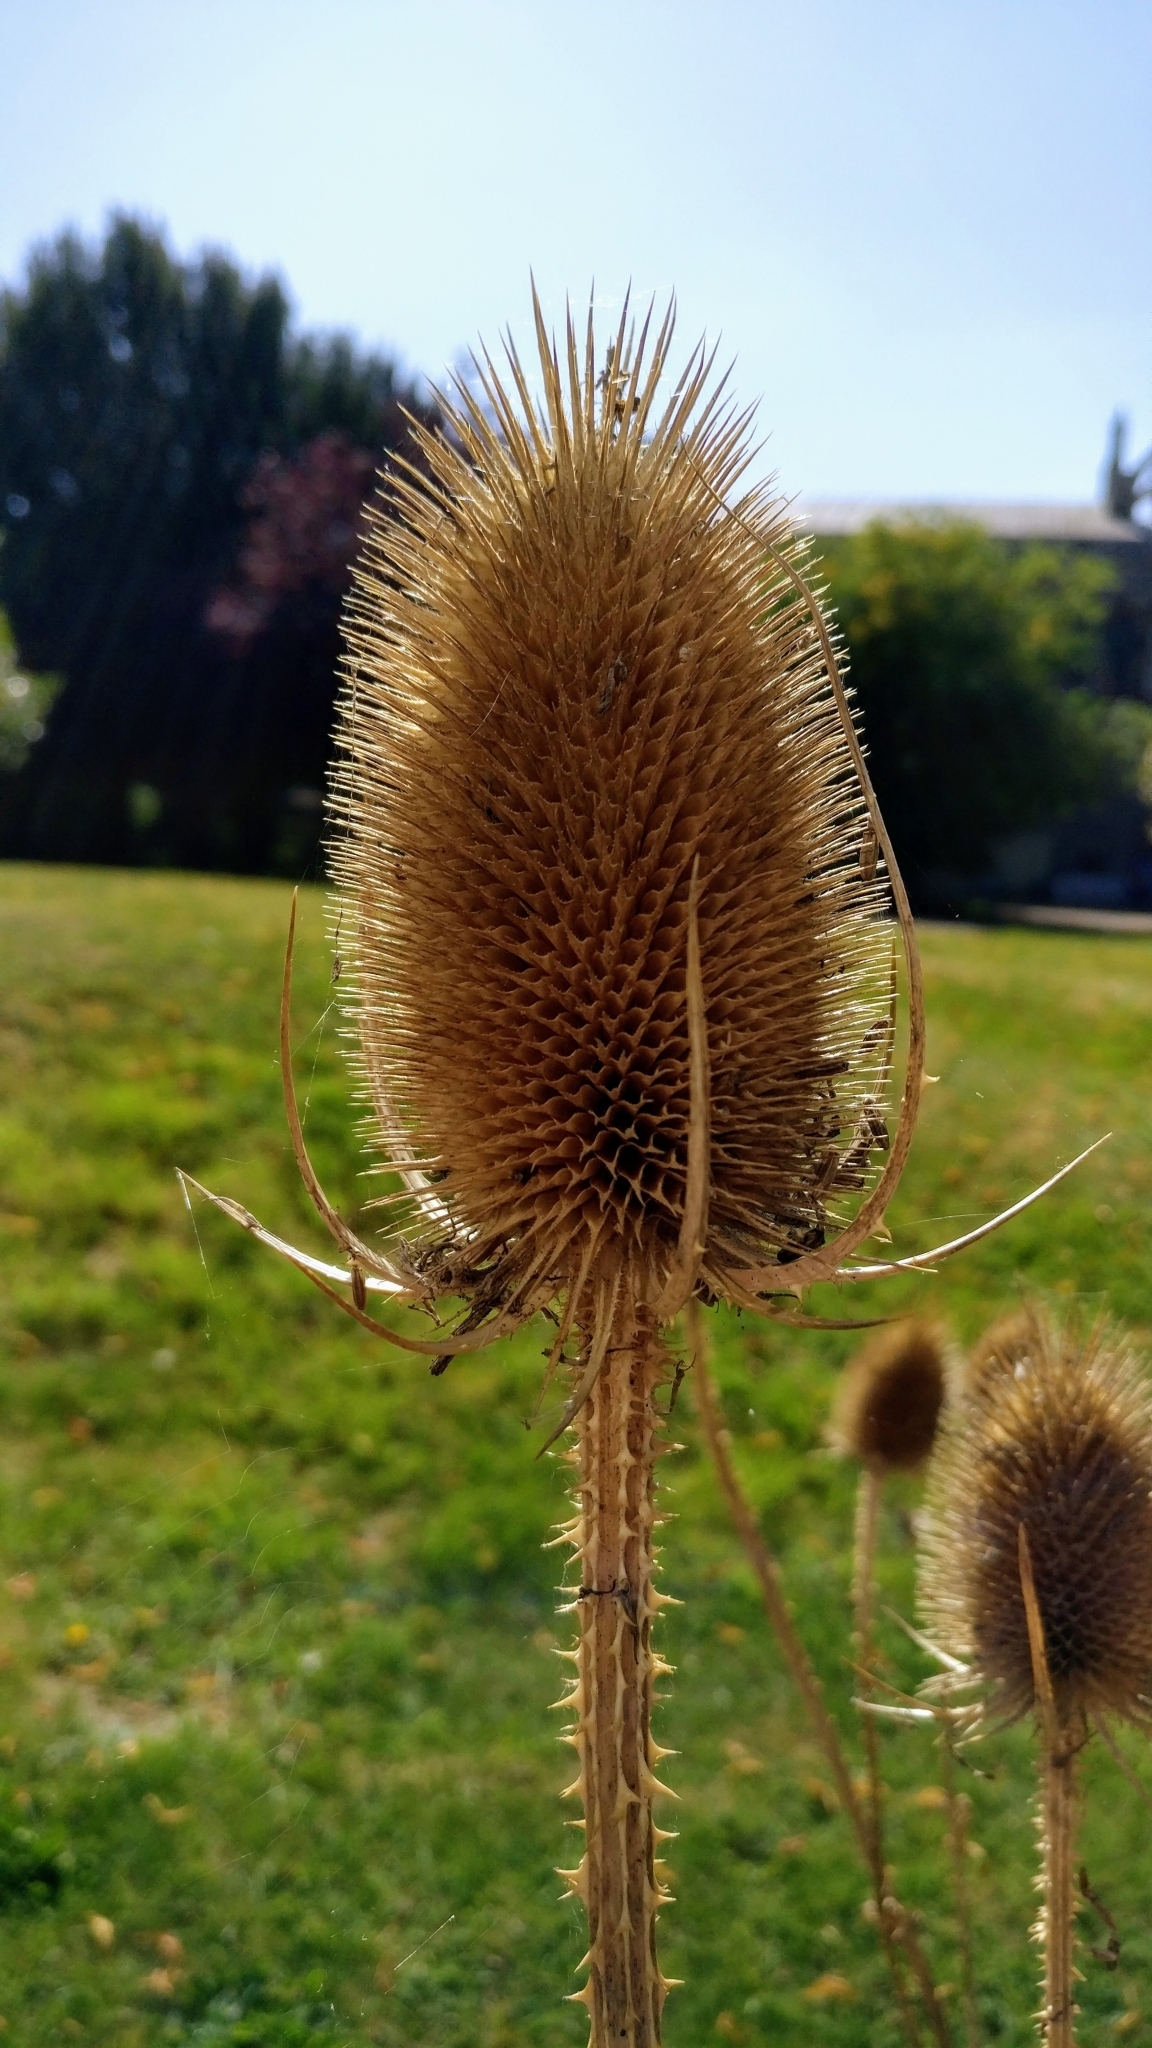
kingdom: Plantae
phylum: Tracheophyta
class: Magnoliopsida
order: Dipsacales
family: Caprifoliaceae
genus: Dipsacus
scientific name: Dipsacus fullonum
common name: Teasel
